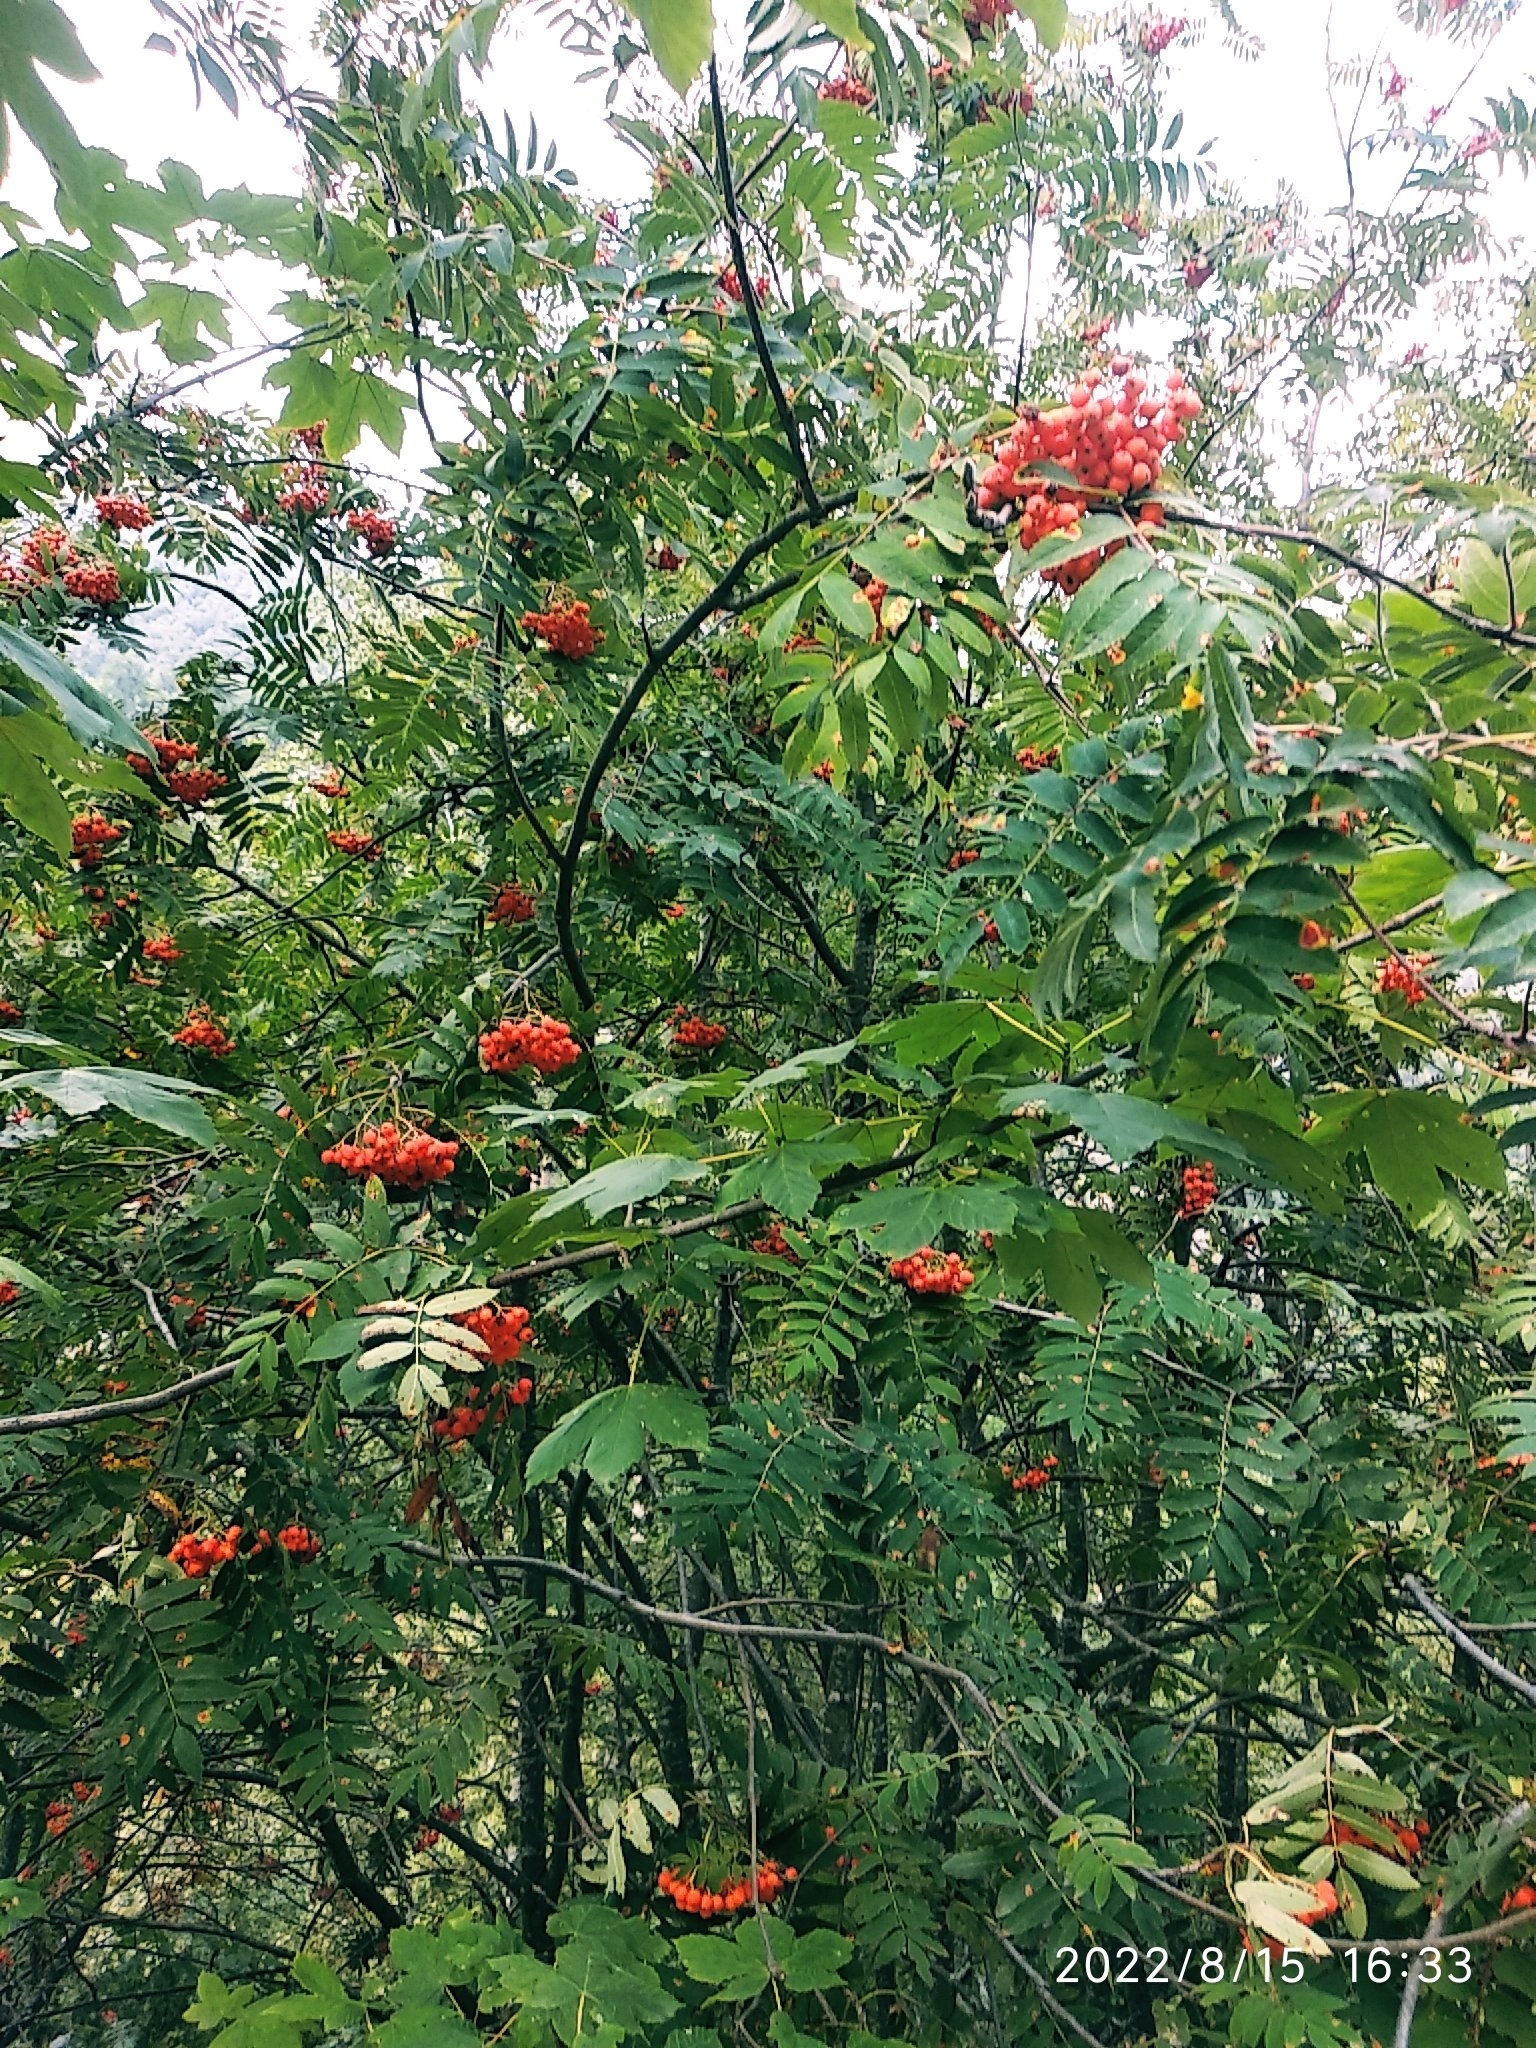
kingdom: Plantae
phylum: Tracheophyta
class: Magnoliopsida
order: Rosales
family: Rosaceae
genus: Sorbus
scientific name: Sorbus aucuparia
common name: Rowan
